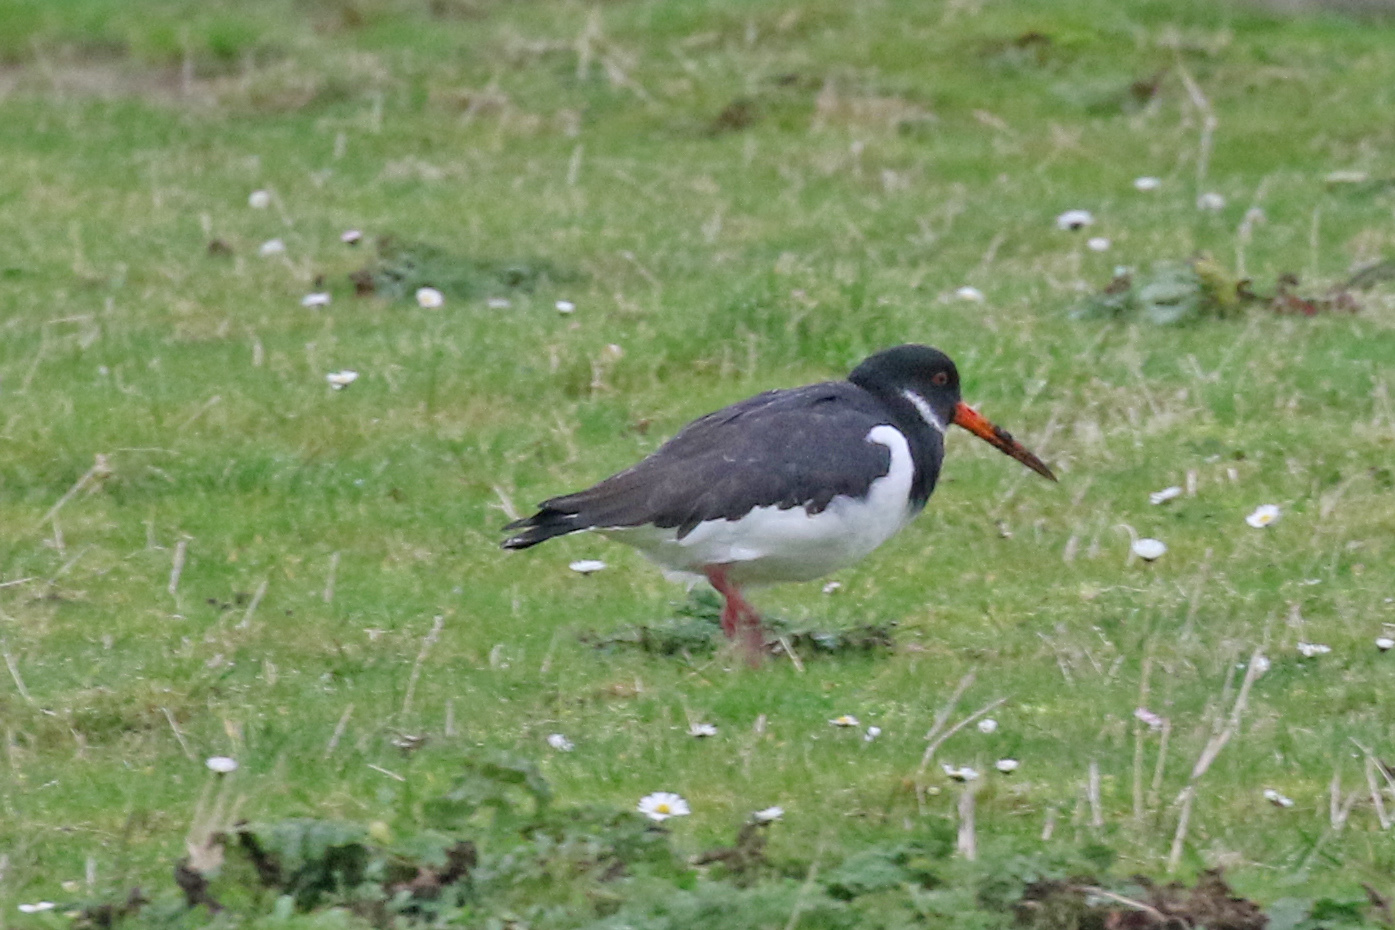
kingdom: Animalia
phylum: Chordata
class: Aves
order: Charadriiformes
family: Haematopodidae
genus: Haematopus
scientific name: Haematopus ostralegus
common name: Eurasian oystercatcher
